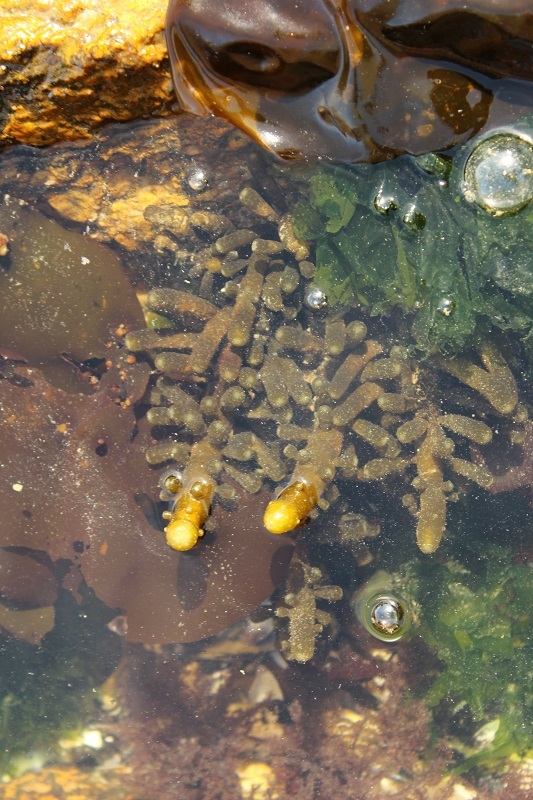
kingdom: Chromista
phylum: Ochrophyta
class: Phaeophyceae
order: Scytothamnales
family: Splachnidiaceae
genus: Splachnidium
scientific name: Splachnidium rugosum
